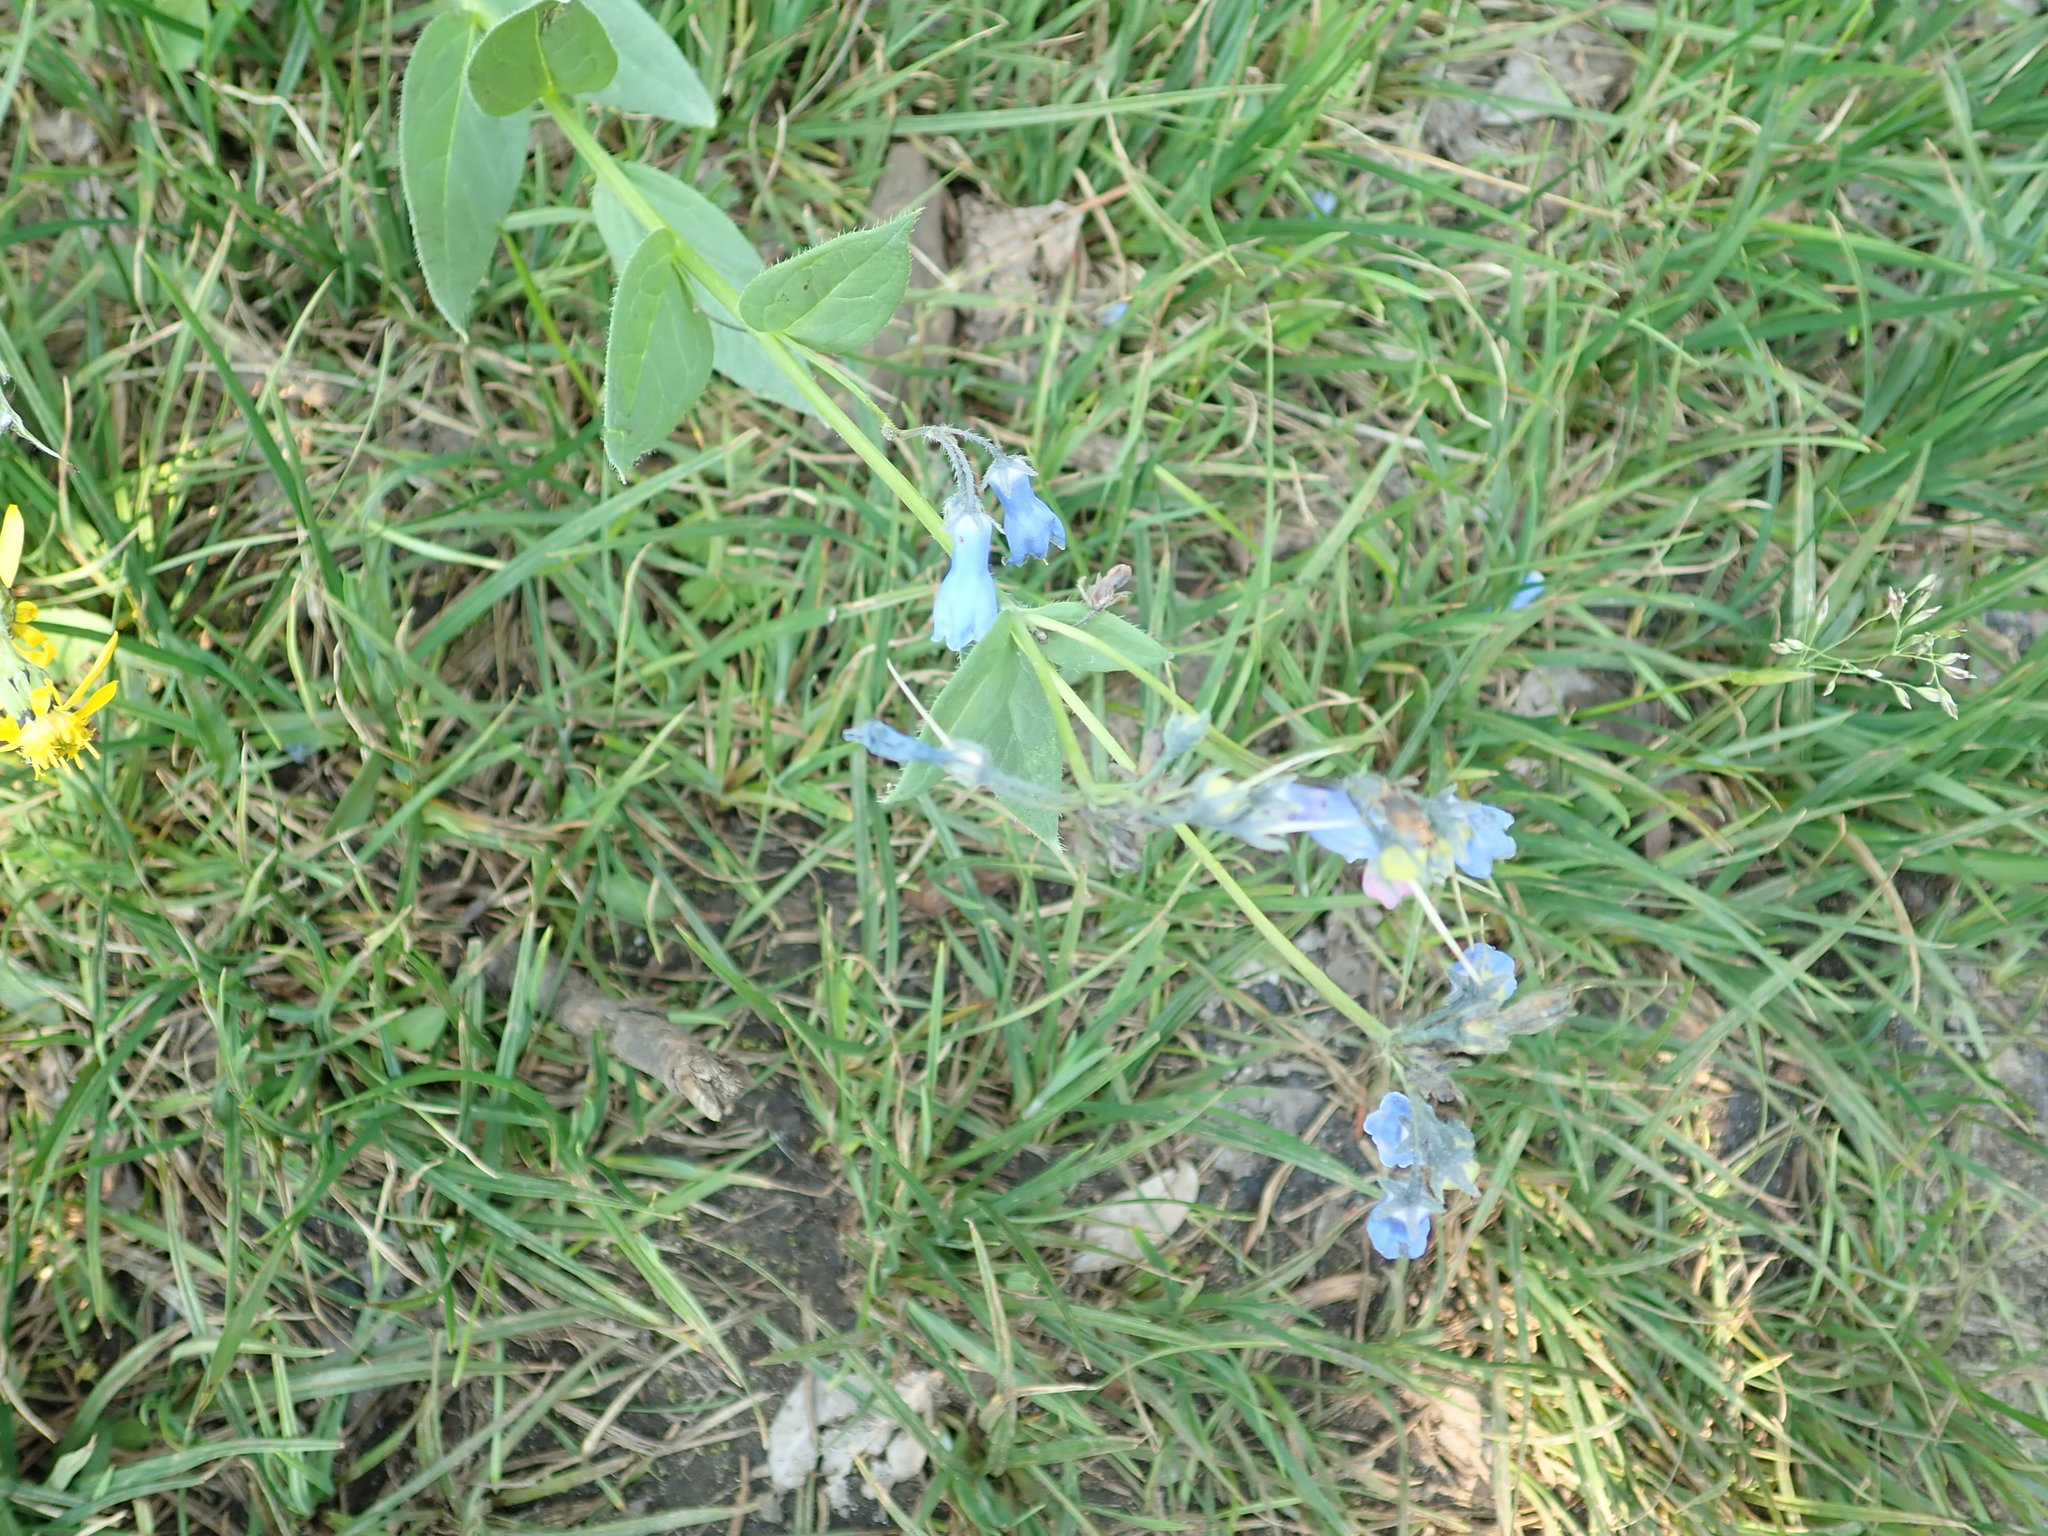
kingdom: Plantae
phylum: Tracheophyta
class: Magnoliopsida
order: Boraginales
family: Boraginaceae
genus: Mertensia
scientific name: Mertensia paniculata
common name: Panicled bluebells
